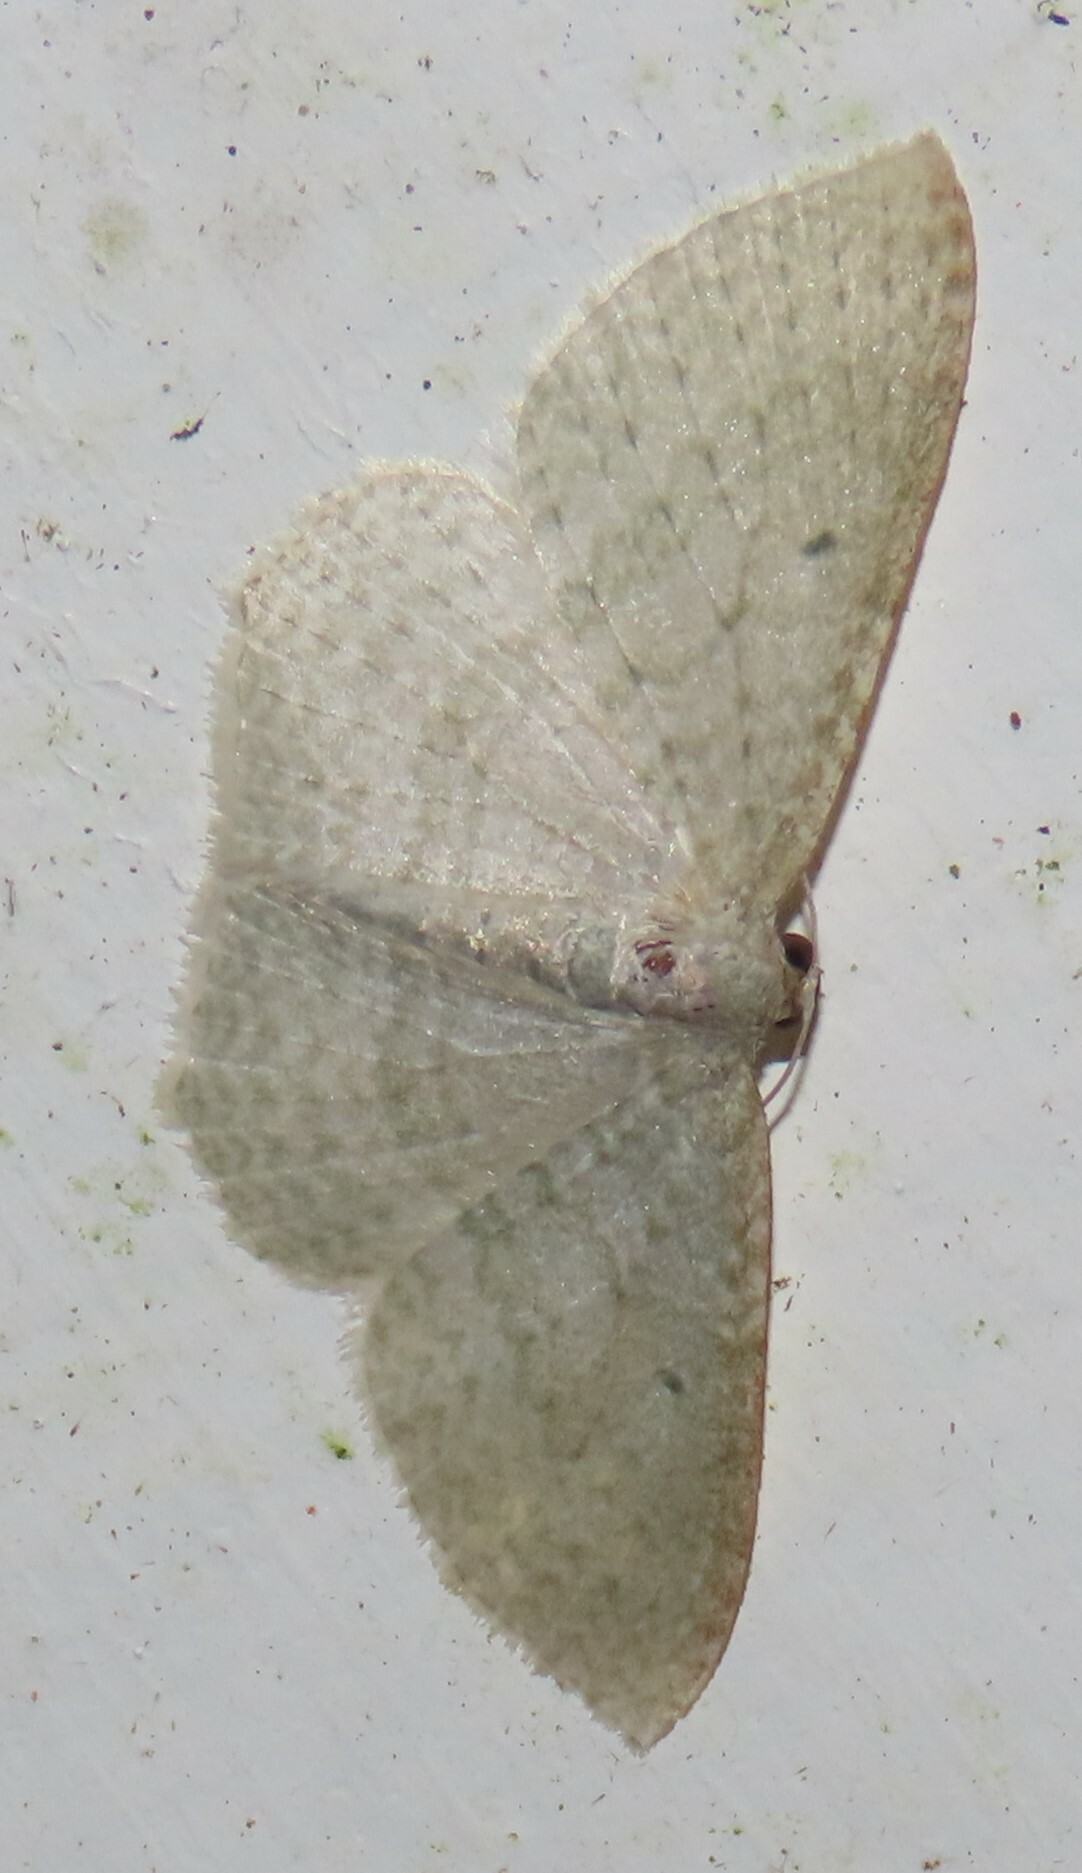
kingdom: Animalia
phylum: Arthropoda
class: Insecta
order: Lepidoptera
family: Geometridae
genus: Poecilasthena
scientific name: Poecilasthena pulchraria
